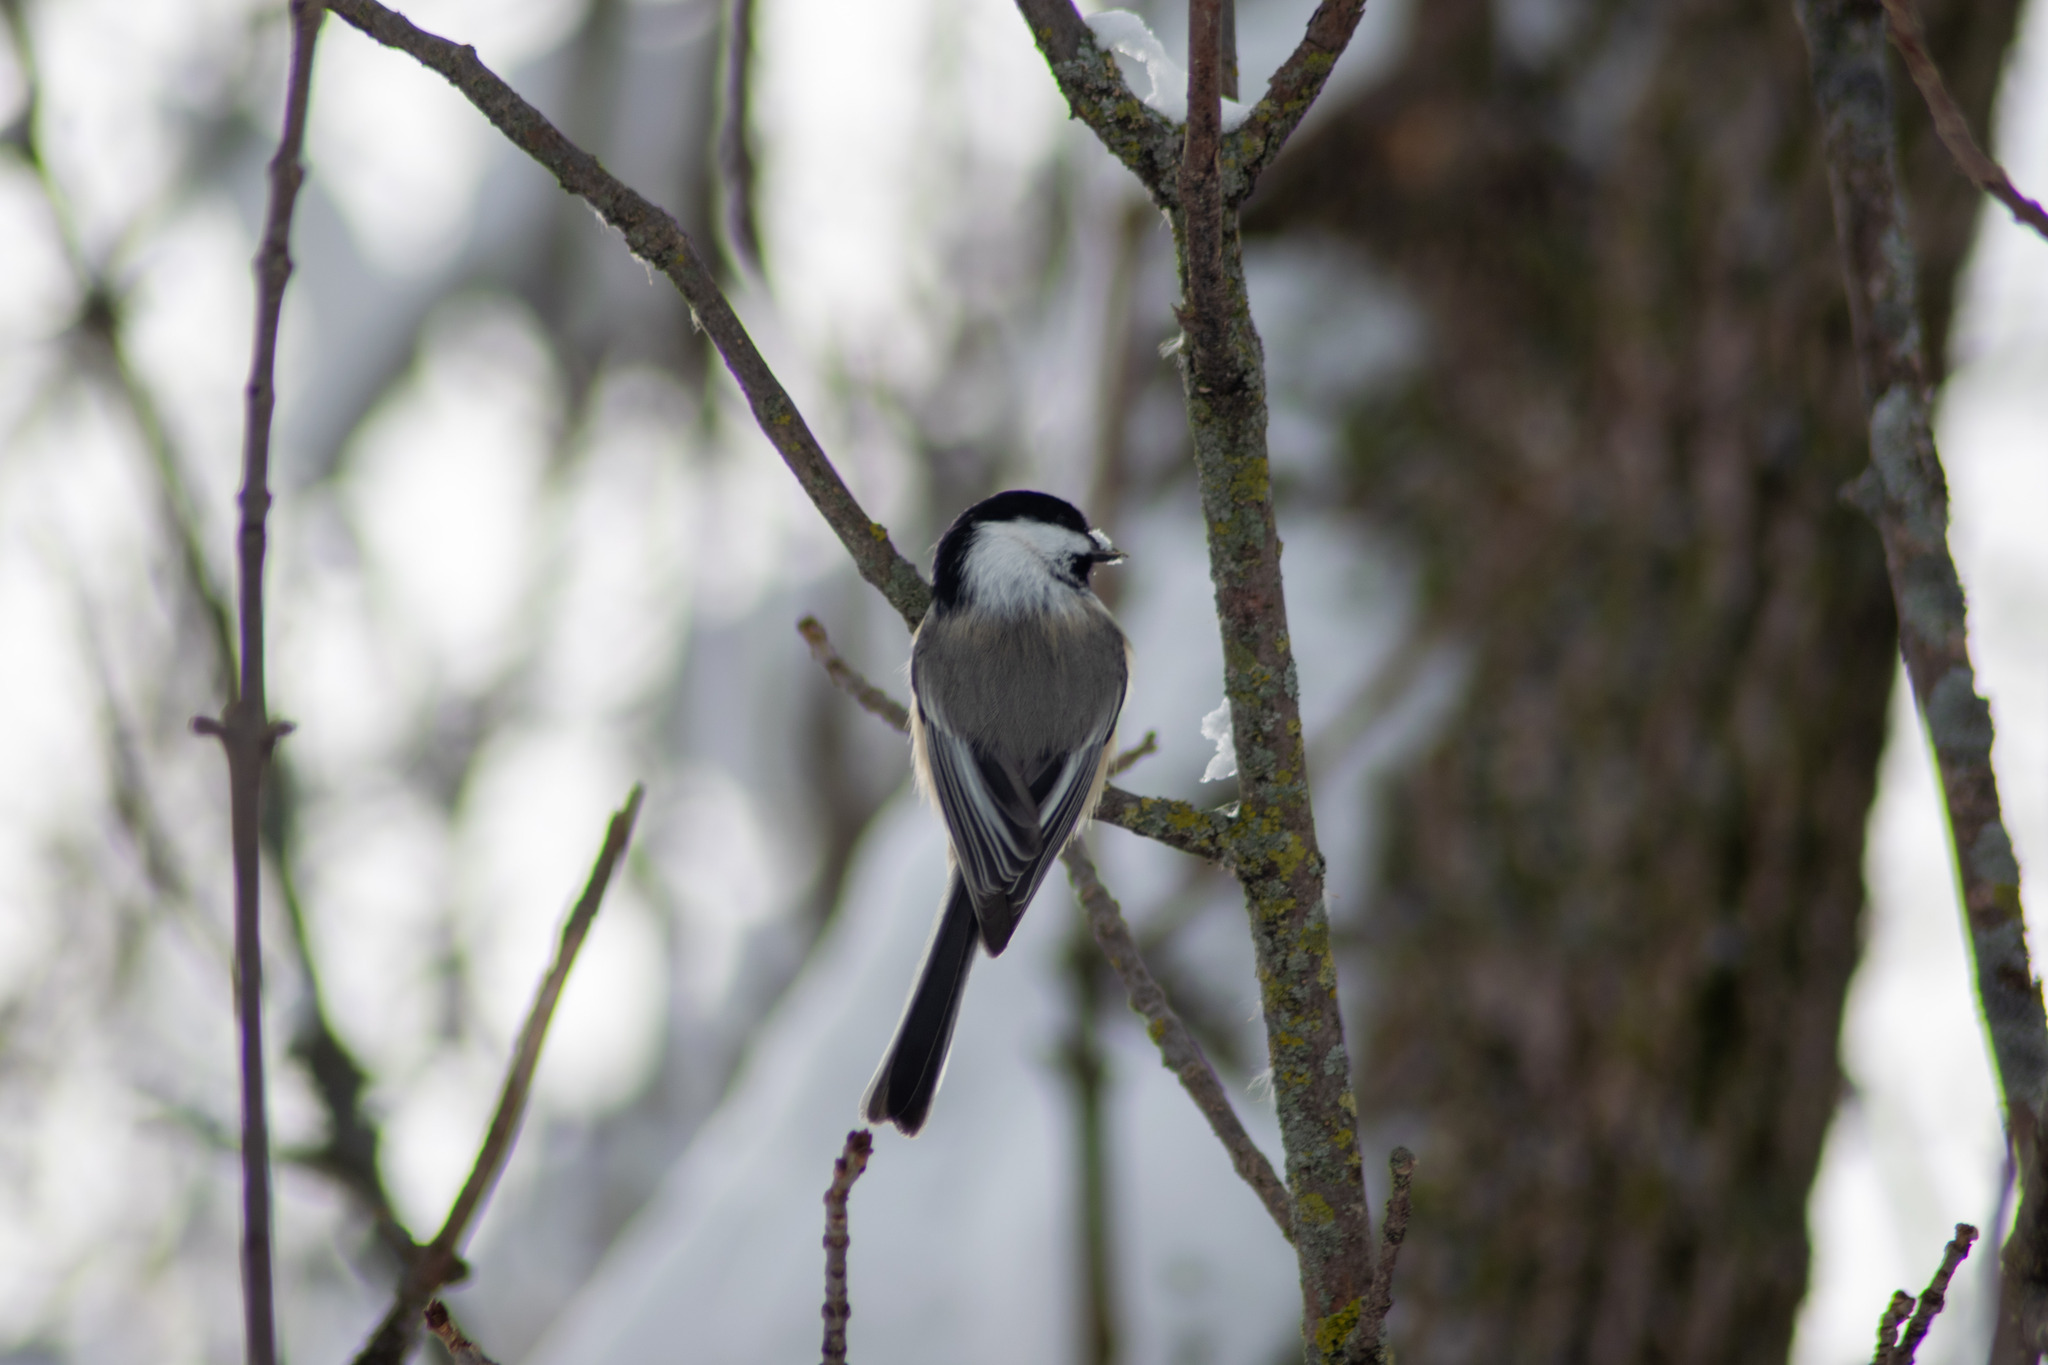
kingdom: Animalia
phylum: Chordata
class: Aves
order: Passeriformes
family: Paridae
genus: Poecile
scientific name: Poecile atricapillus
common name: Black-capped chickadee
